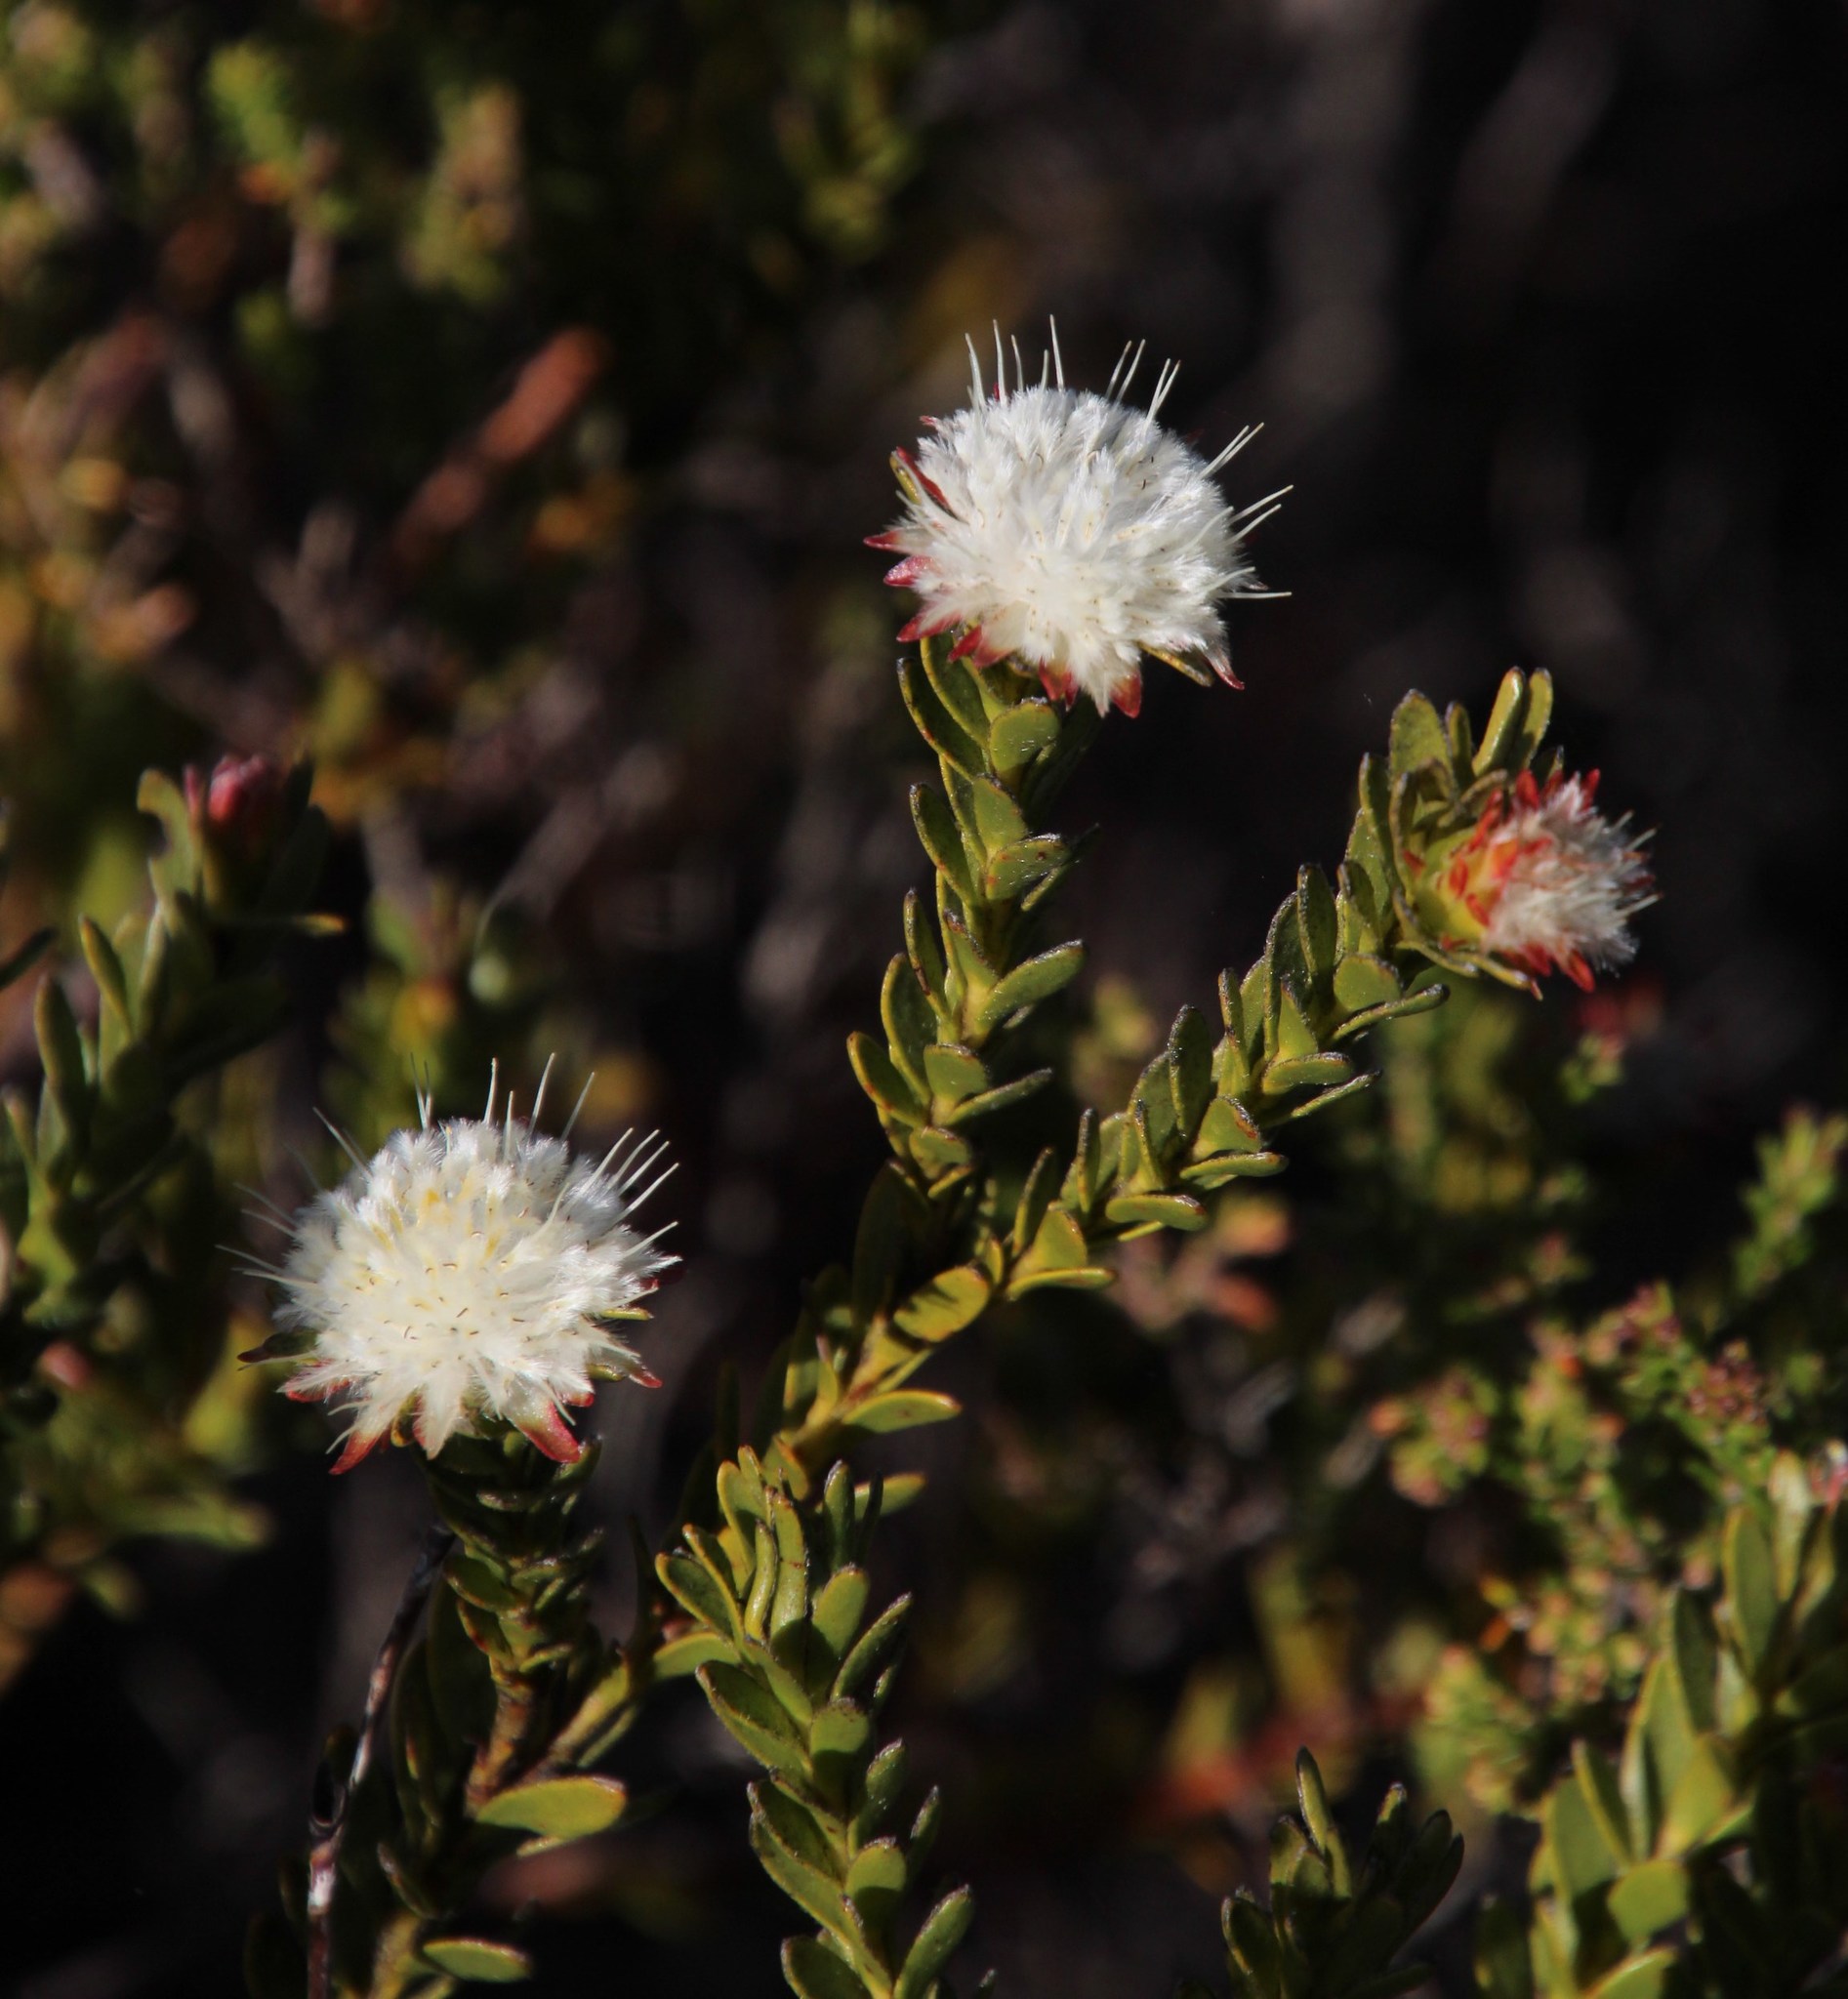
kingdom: Plantae
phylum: Tracheophyta
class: Magnoliopsida
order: Proteales
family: Proteaceae
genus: Diastella
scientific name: Diastella thymelaeoides
